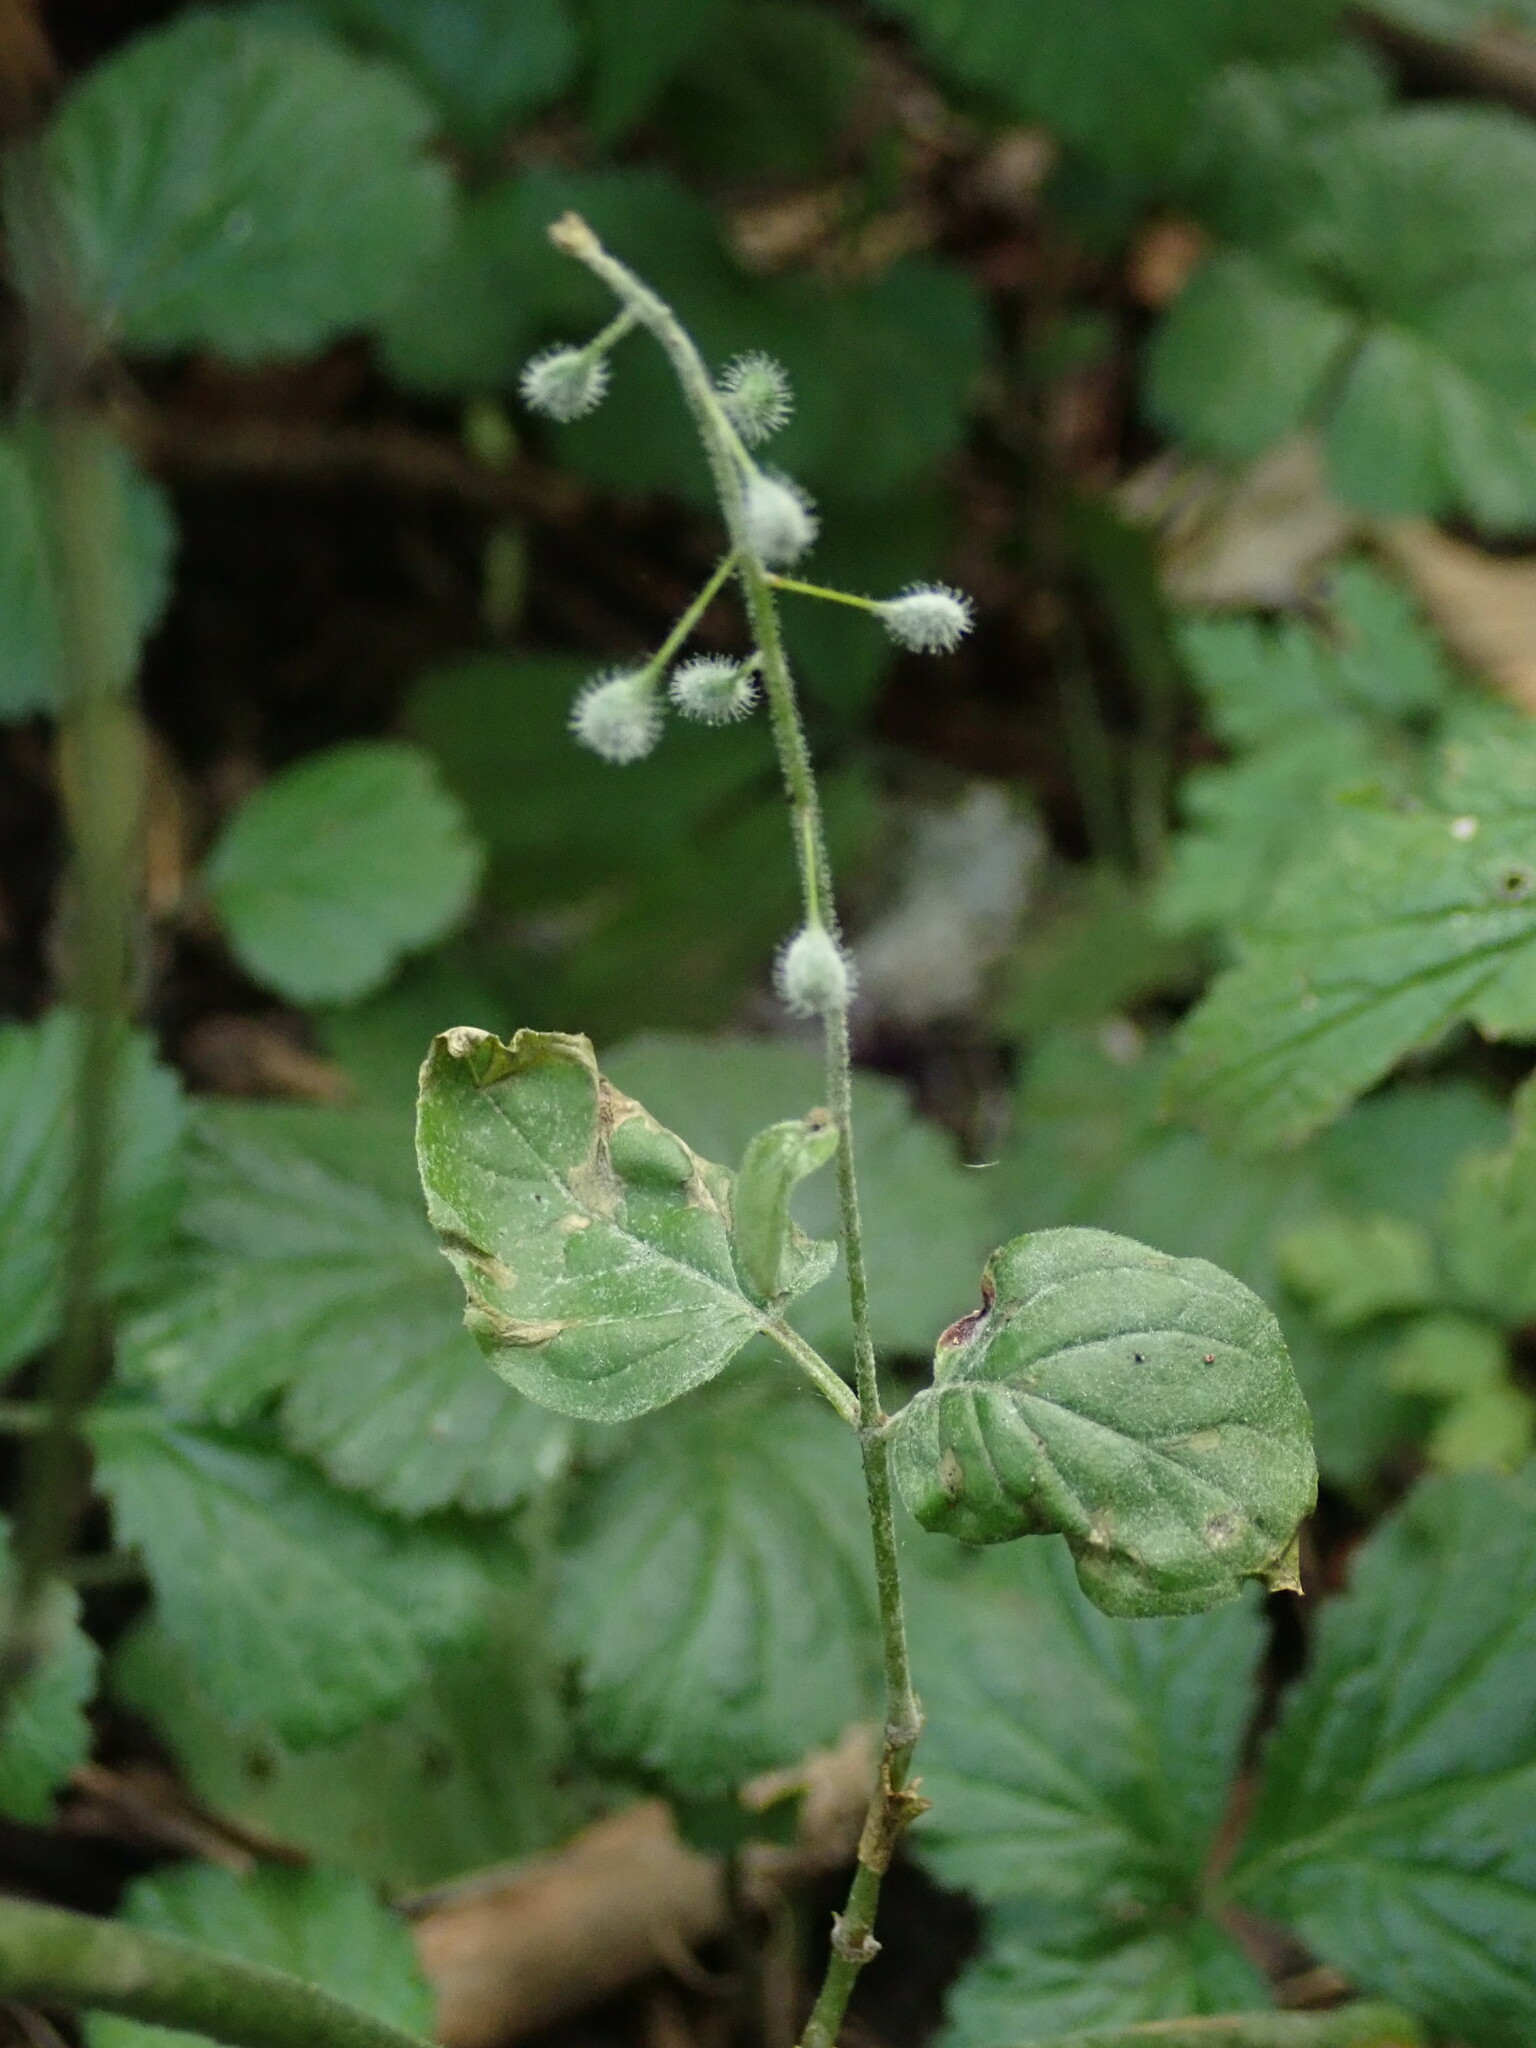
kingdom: Plantae
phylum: Tracheophyta
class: Magnoliopsida
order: Myrtales
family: Onagraceae
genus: Circaea
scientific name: Circaea lutetiana
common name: Enchanter's-nightshade
